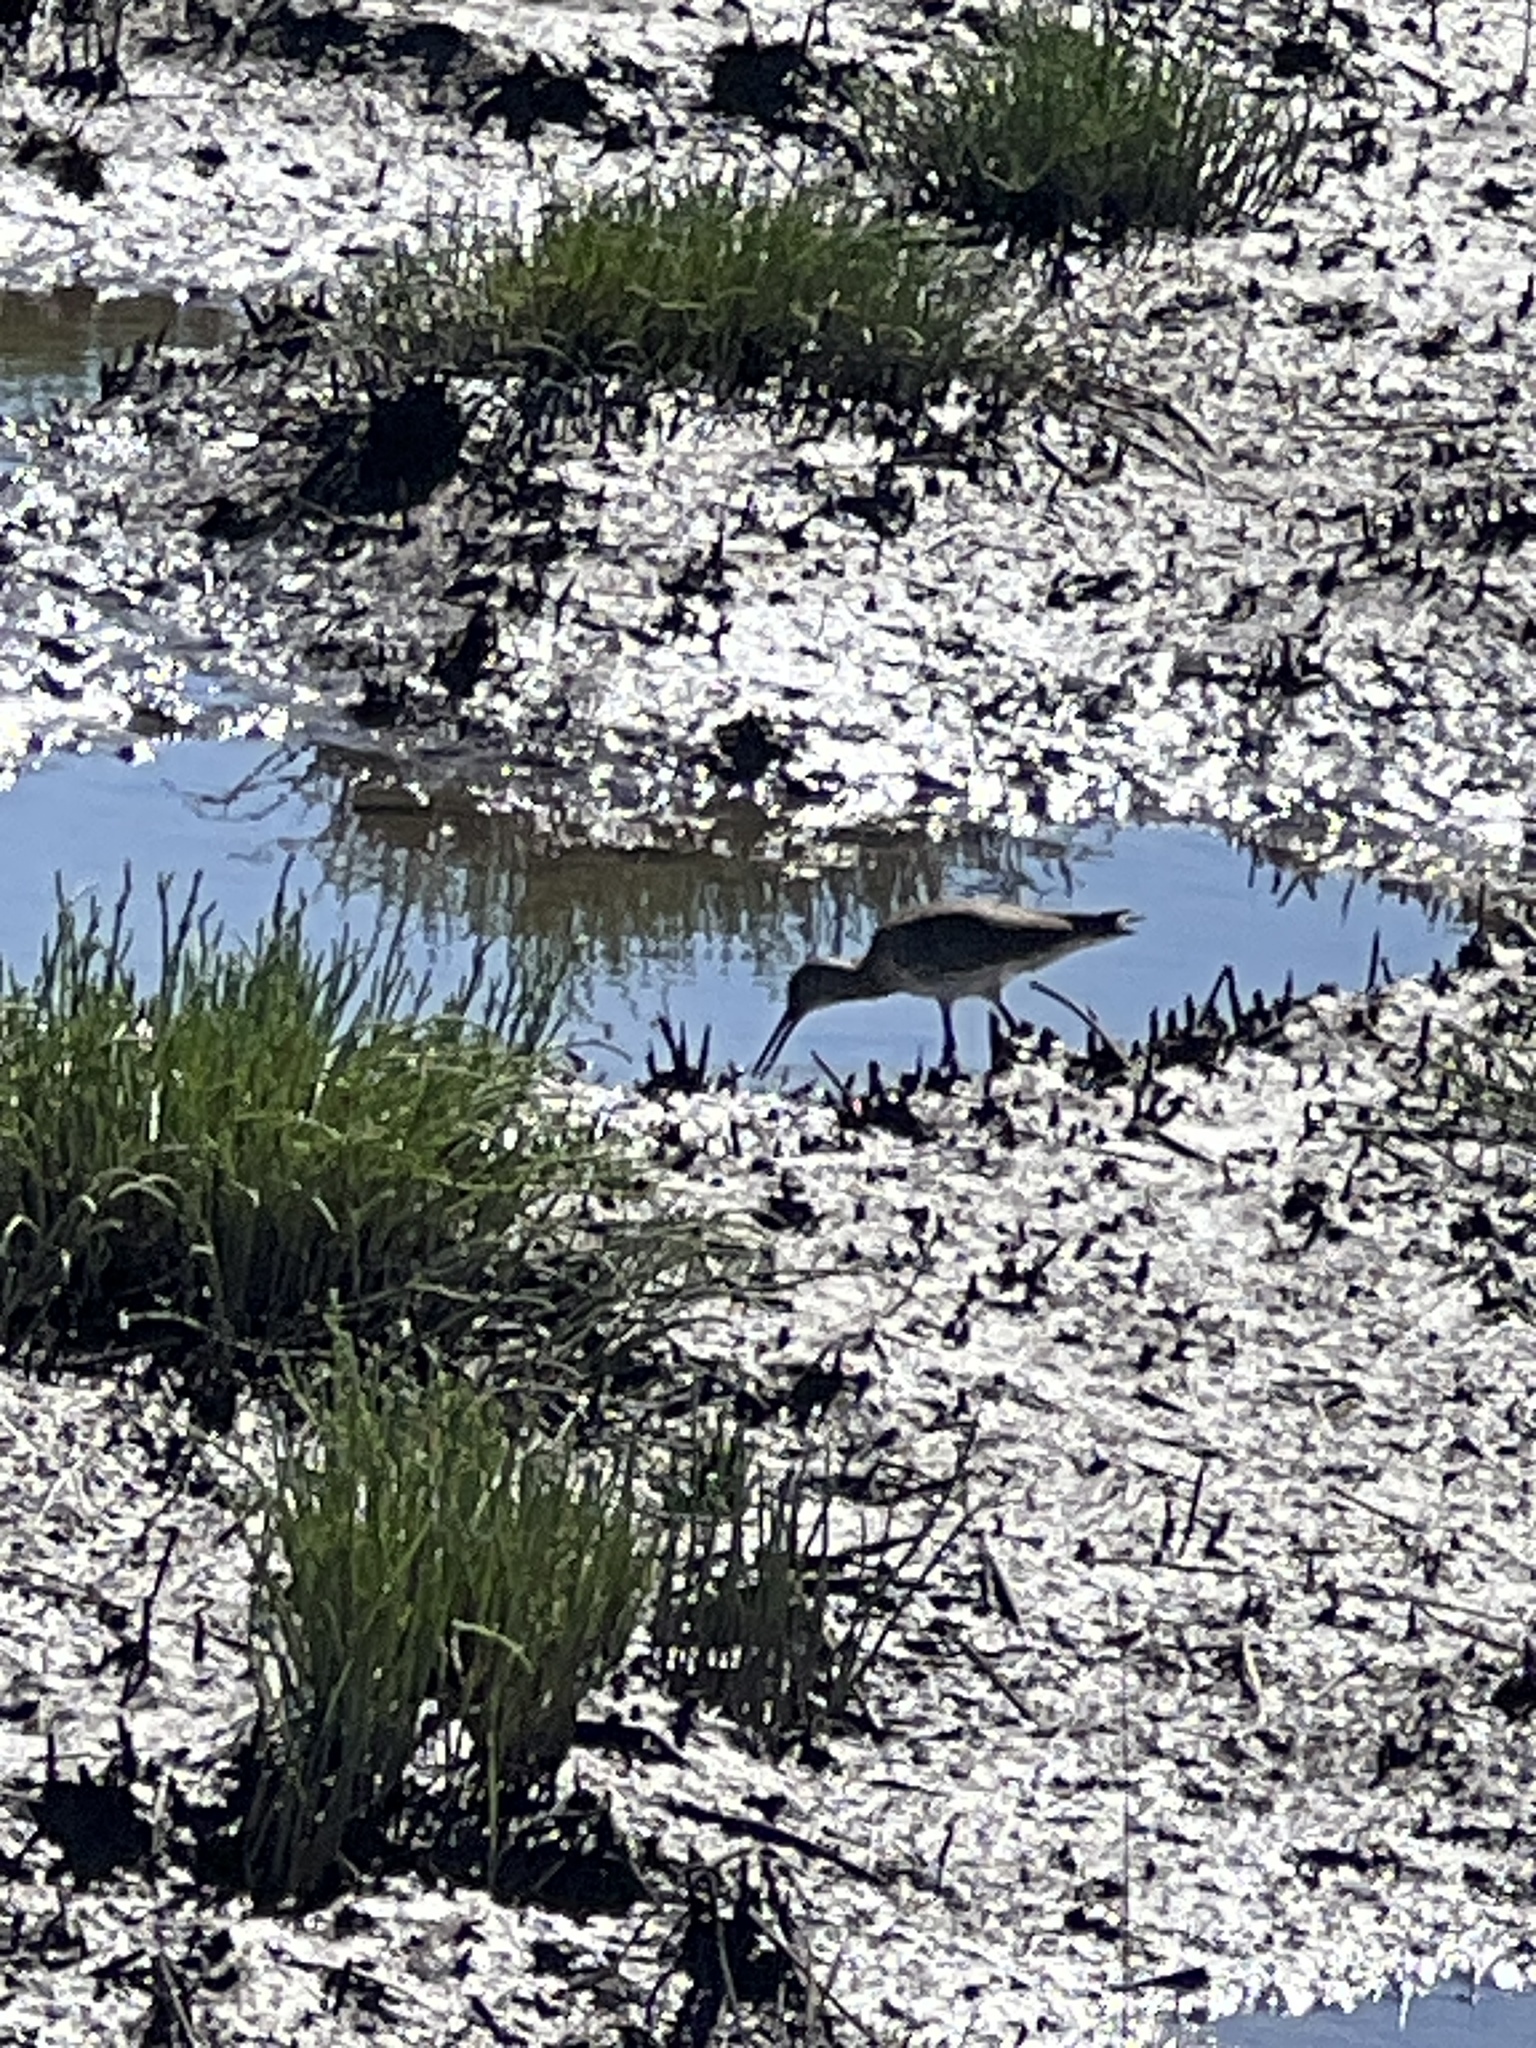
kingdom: Animalia
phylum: Chordata
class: Aves
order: Charadriiformes
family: Scolopacidae
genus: Tringa
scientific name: Tringa semipalmata
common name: Willet
